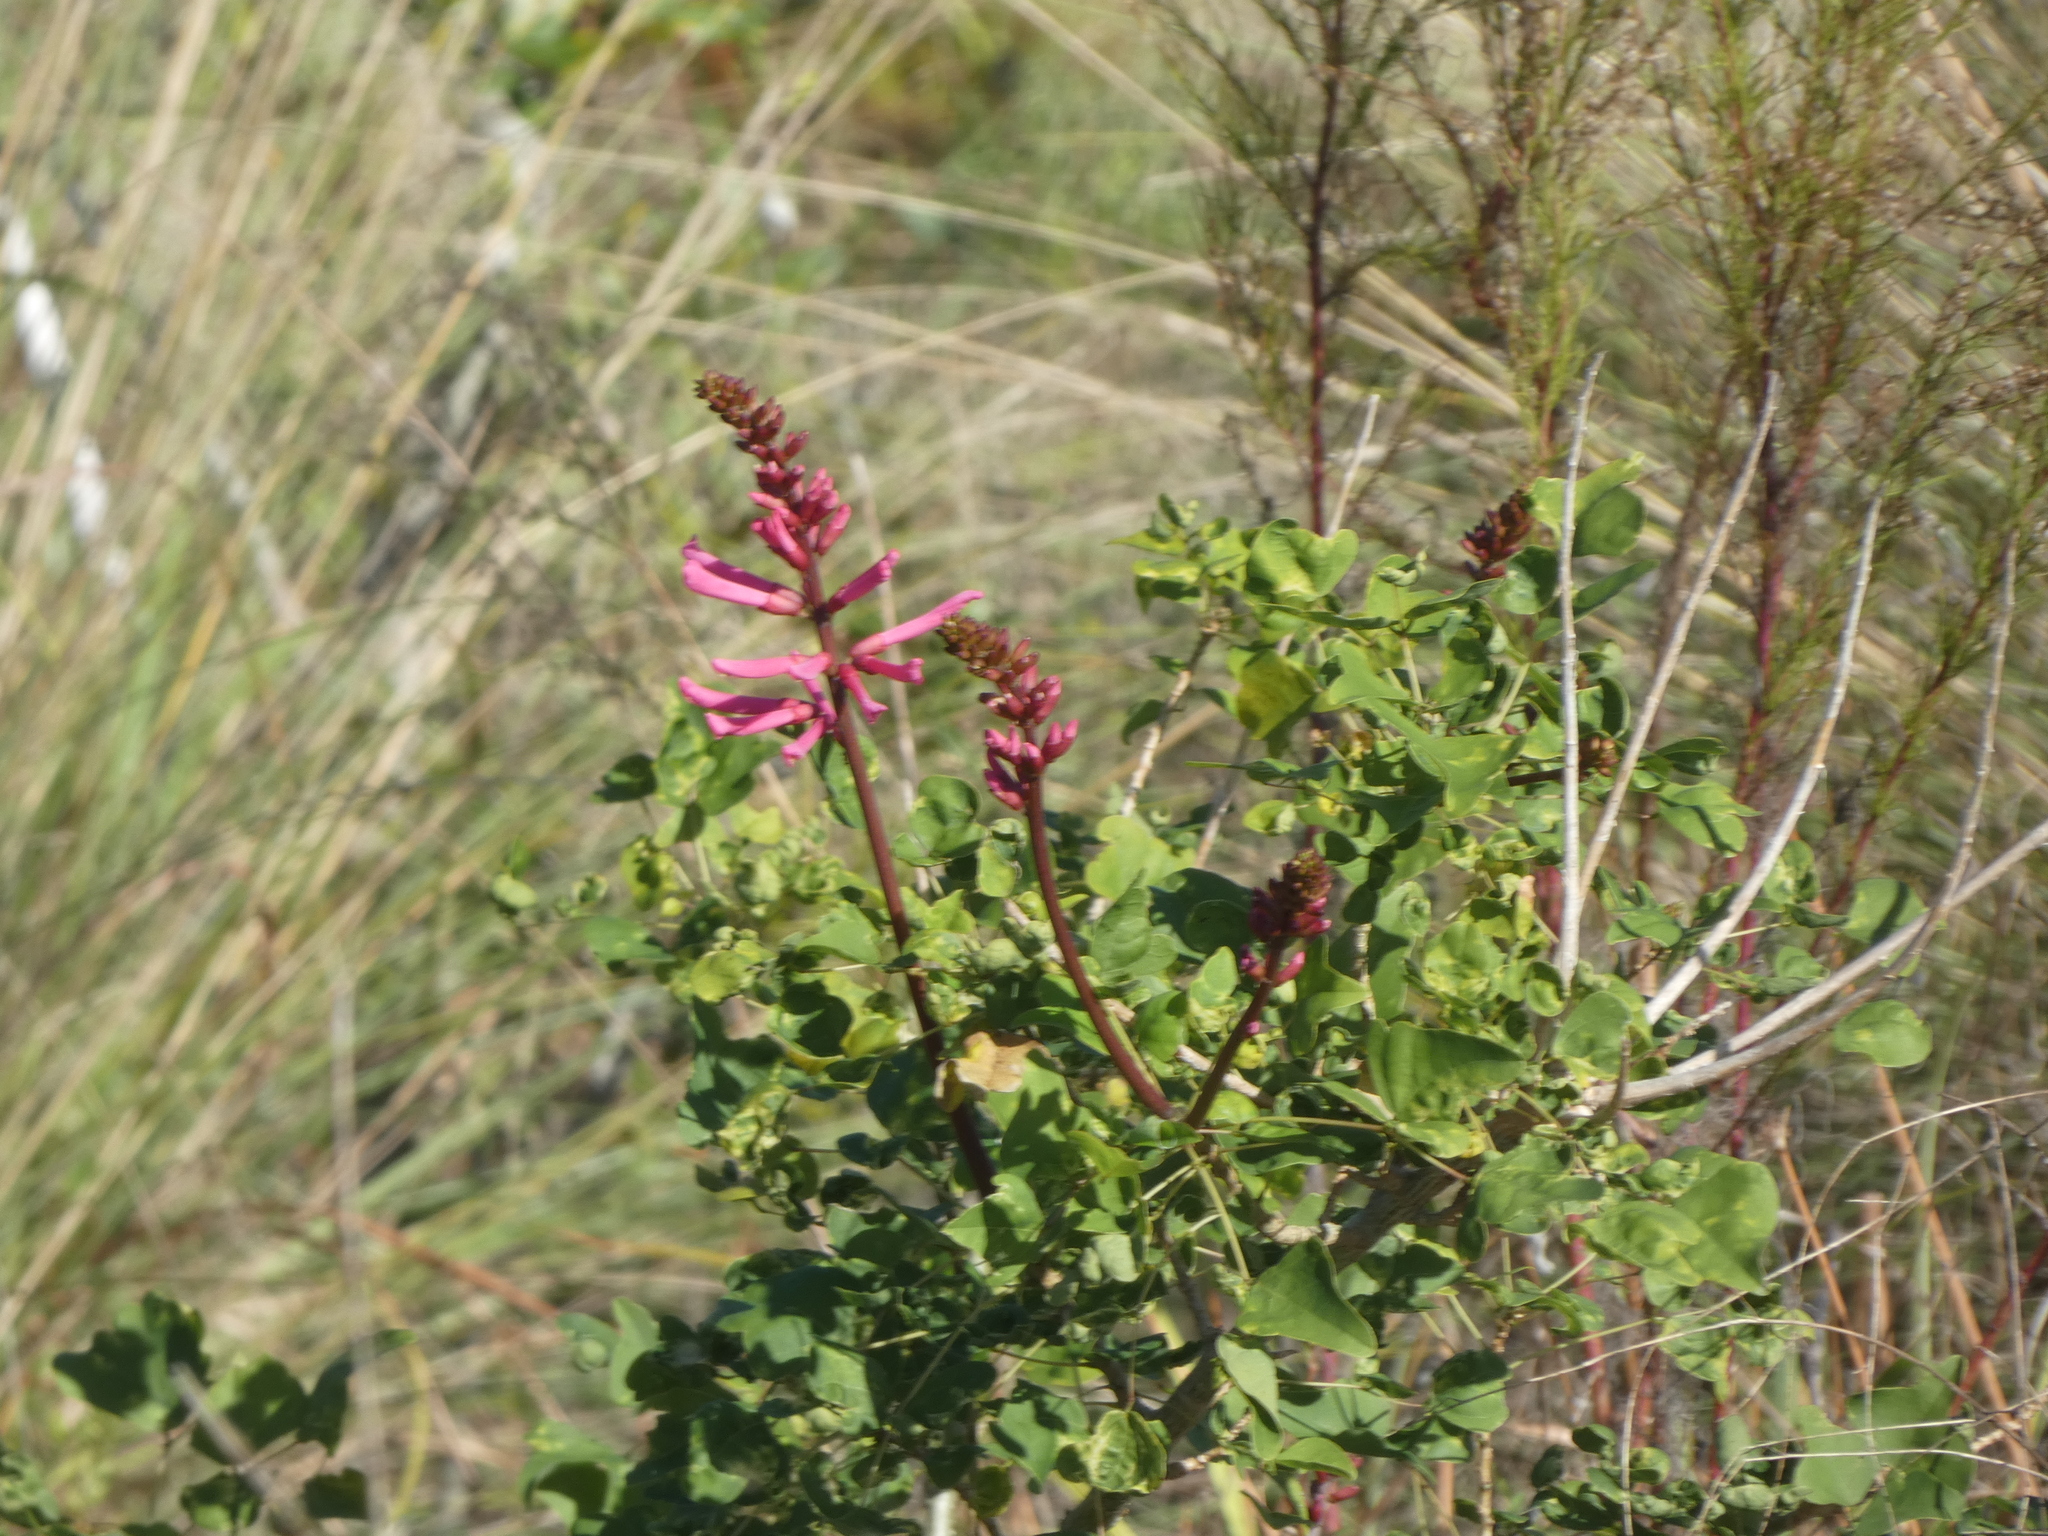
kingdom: Plantae
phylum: Tracheophyta
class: Magnoliopsida
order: Fabales
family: Fabaceae
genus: Erythrina
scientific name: Erythrina herbacea
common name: Coral-bean
